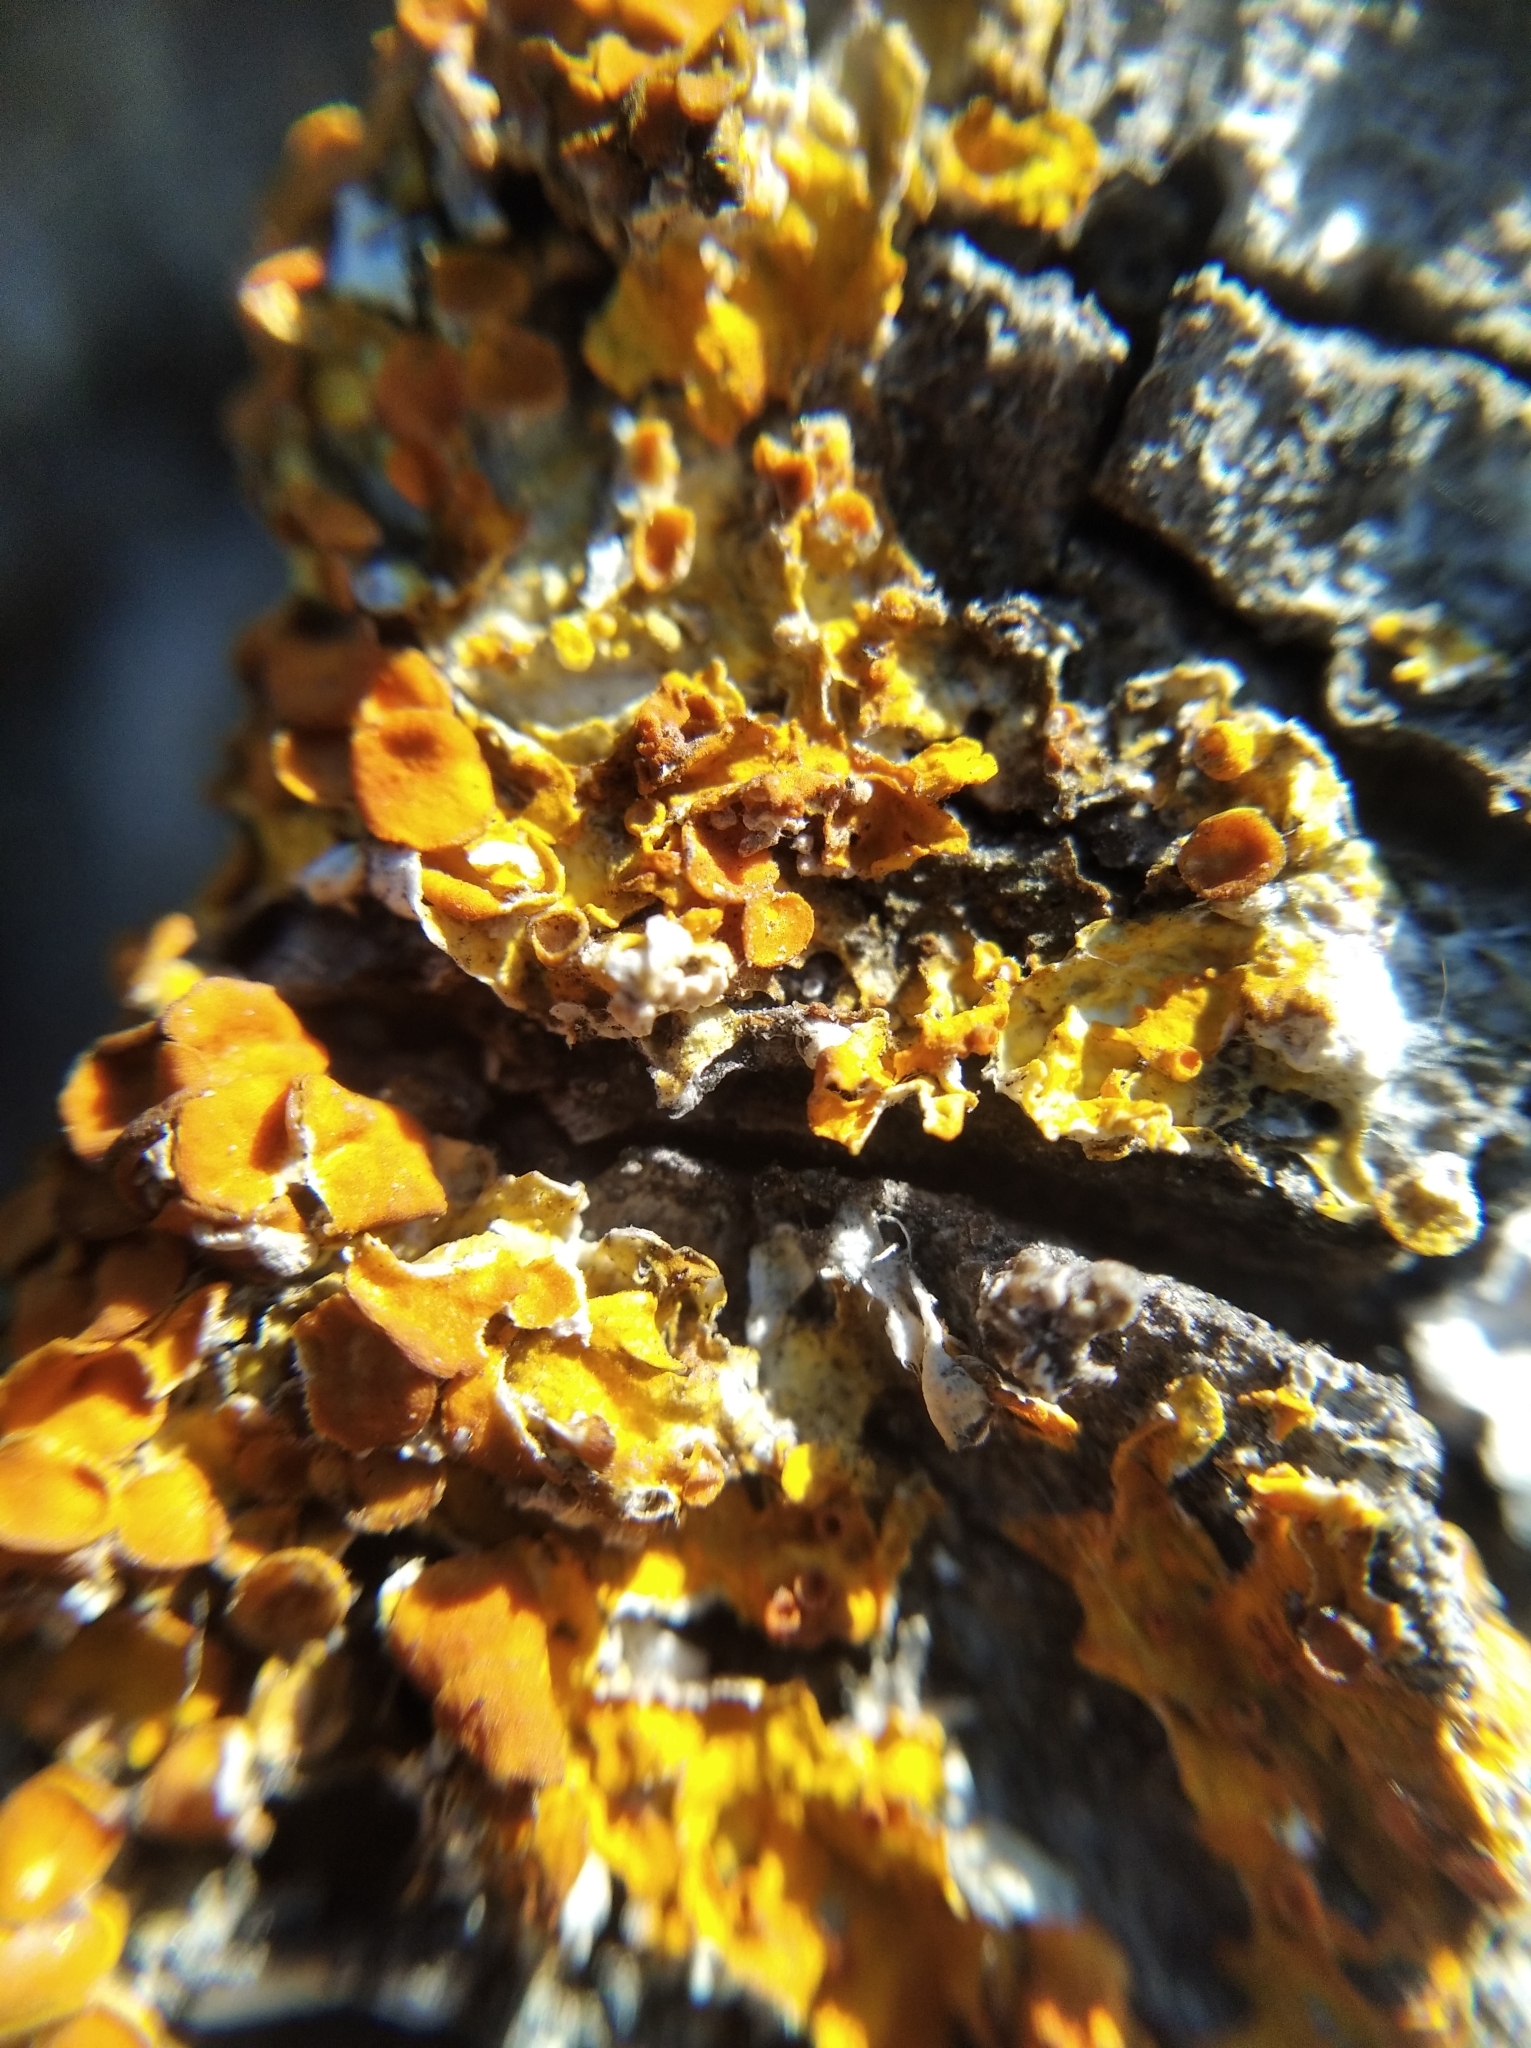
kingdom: Fungi
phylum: Ascomycota
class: Lecanoromycetes
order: Teloschistales
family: Teloschistaceae
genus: Xanthoria
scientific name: Xanthoria parietina
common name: Common orange lichen
